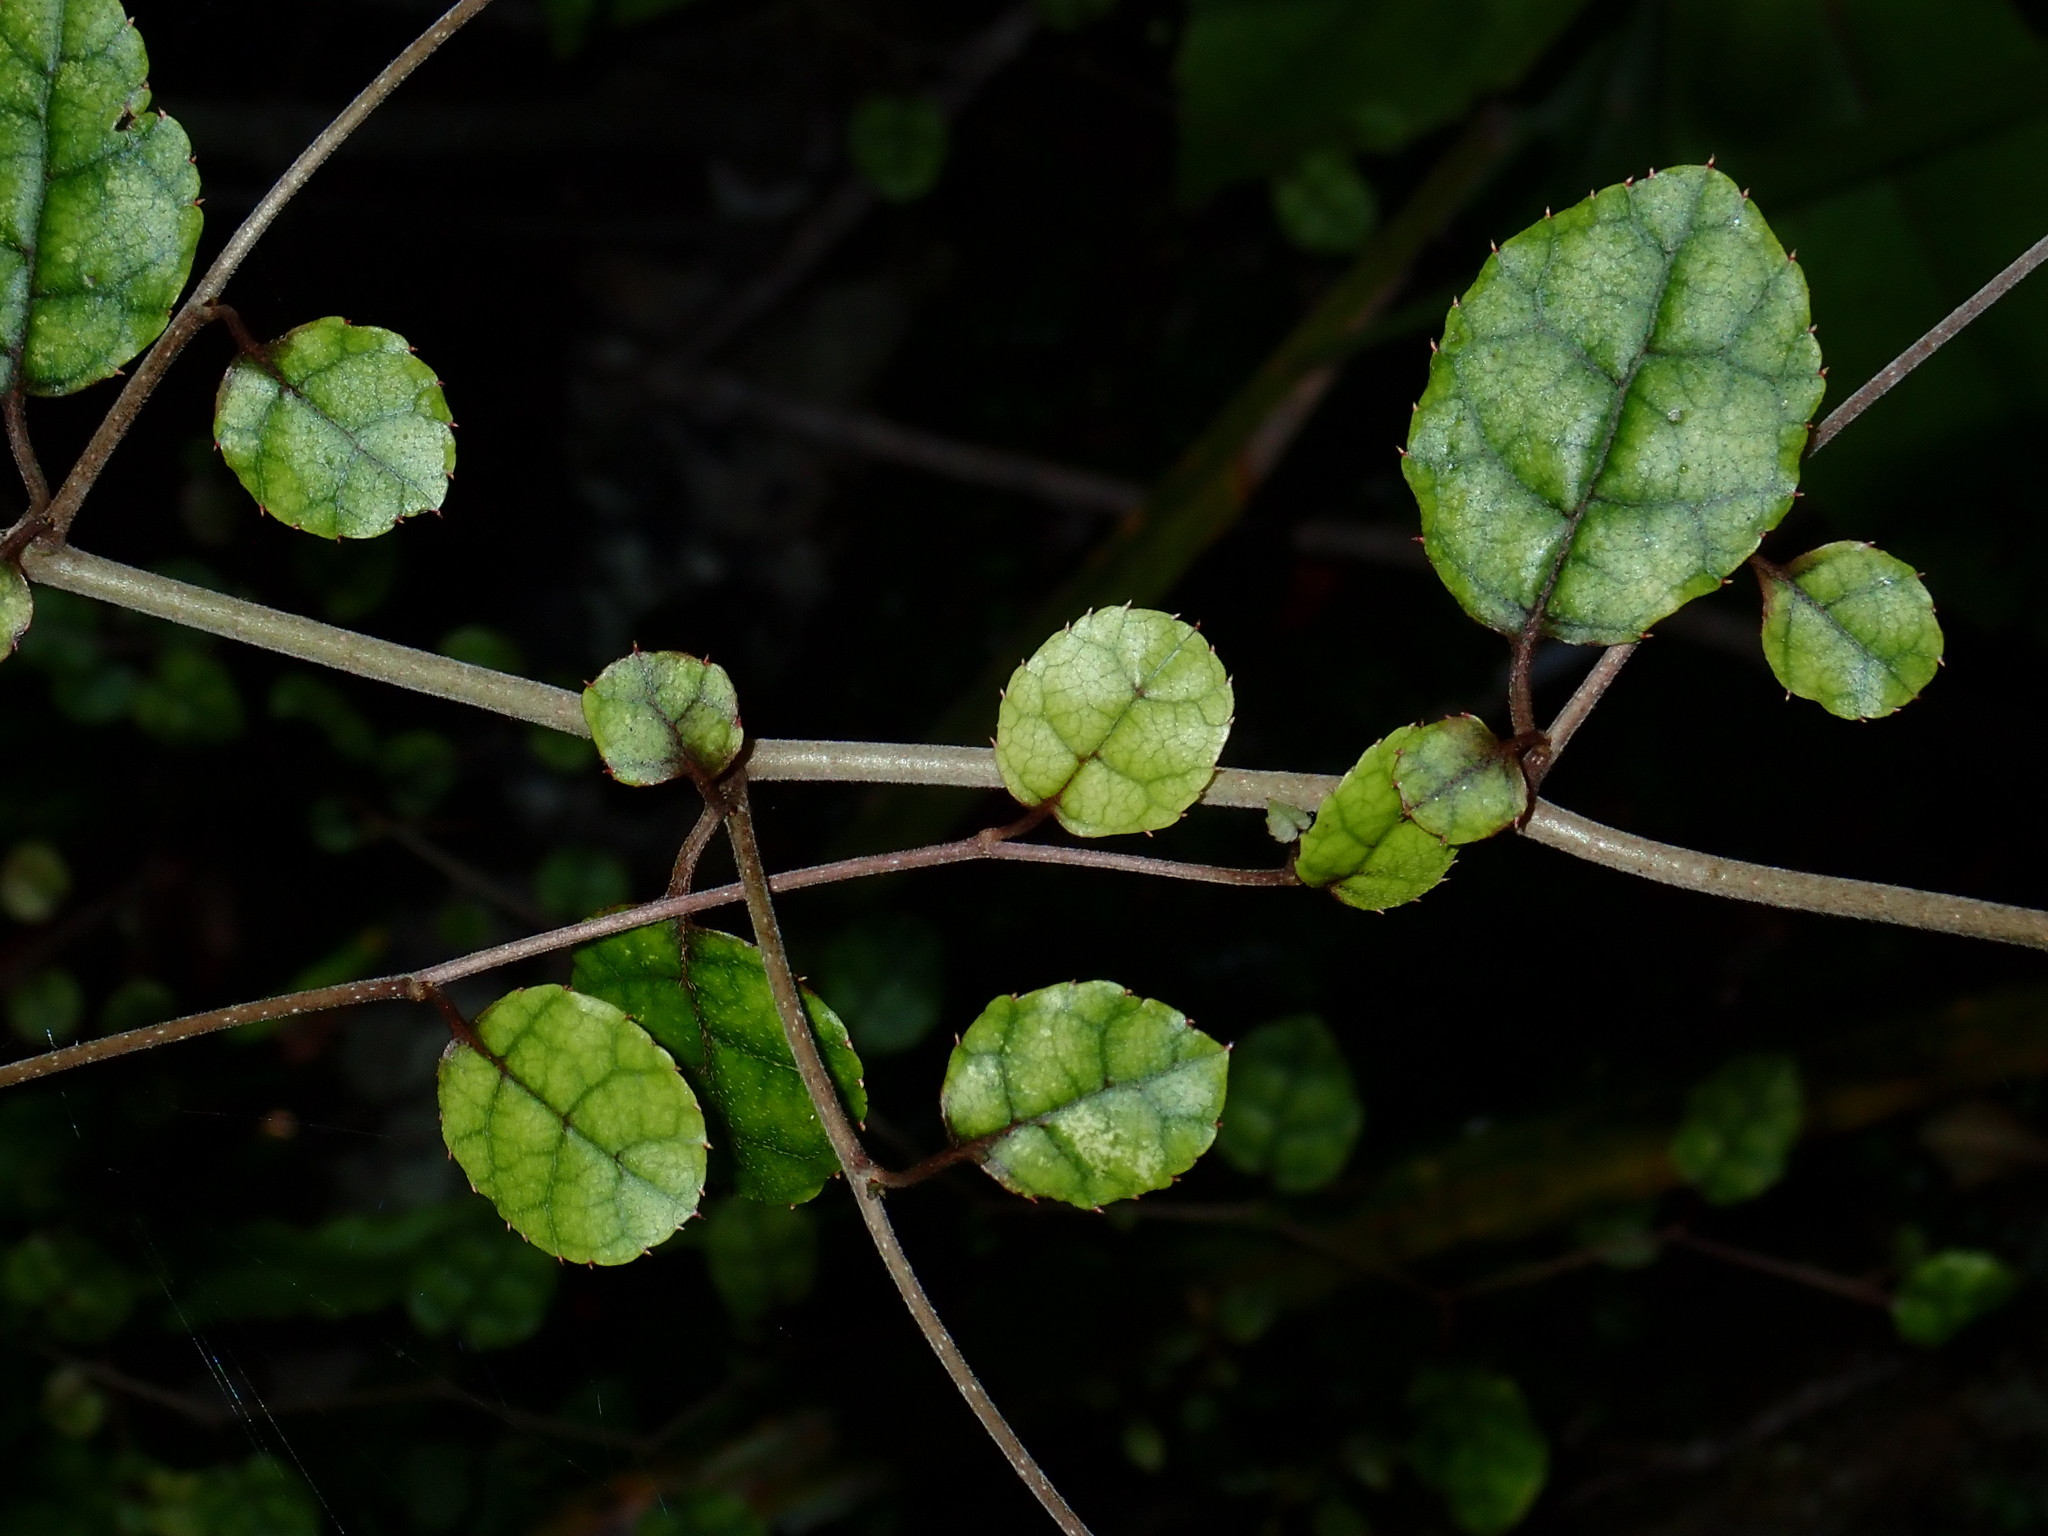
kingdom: Plantae
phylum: Tracheophyta
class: Magnoliopsida
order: Asterales
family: Rousseaceae
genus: Carpodetus
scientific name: Carpodetus serratus
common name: White mapau
